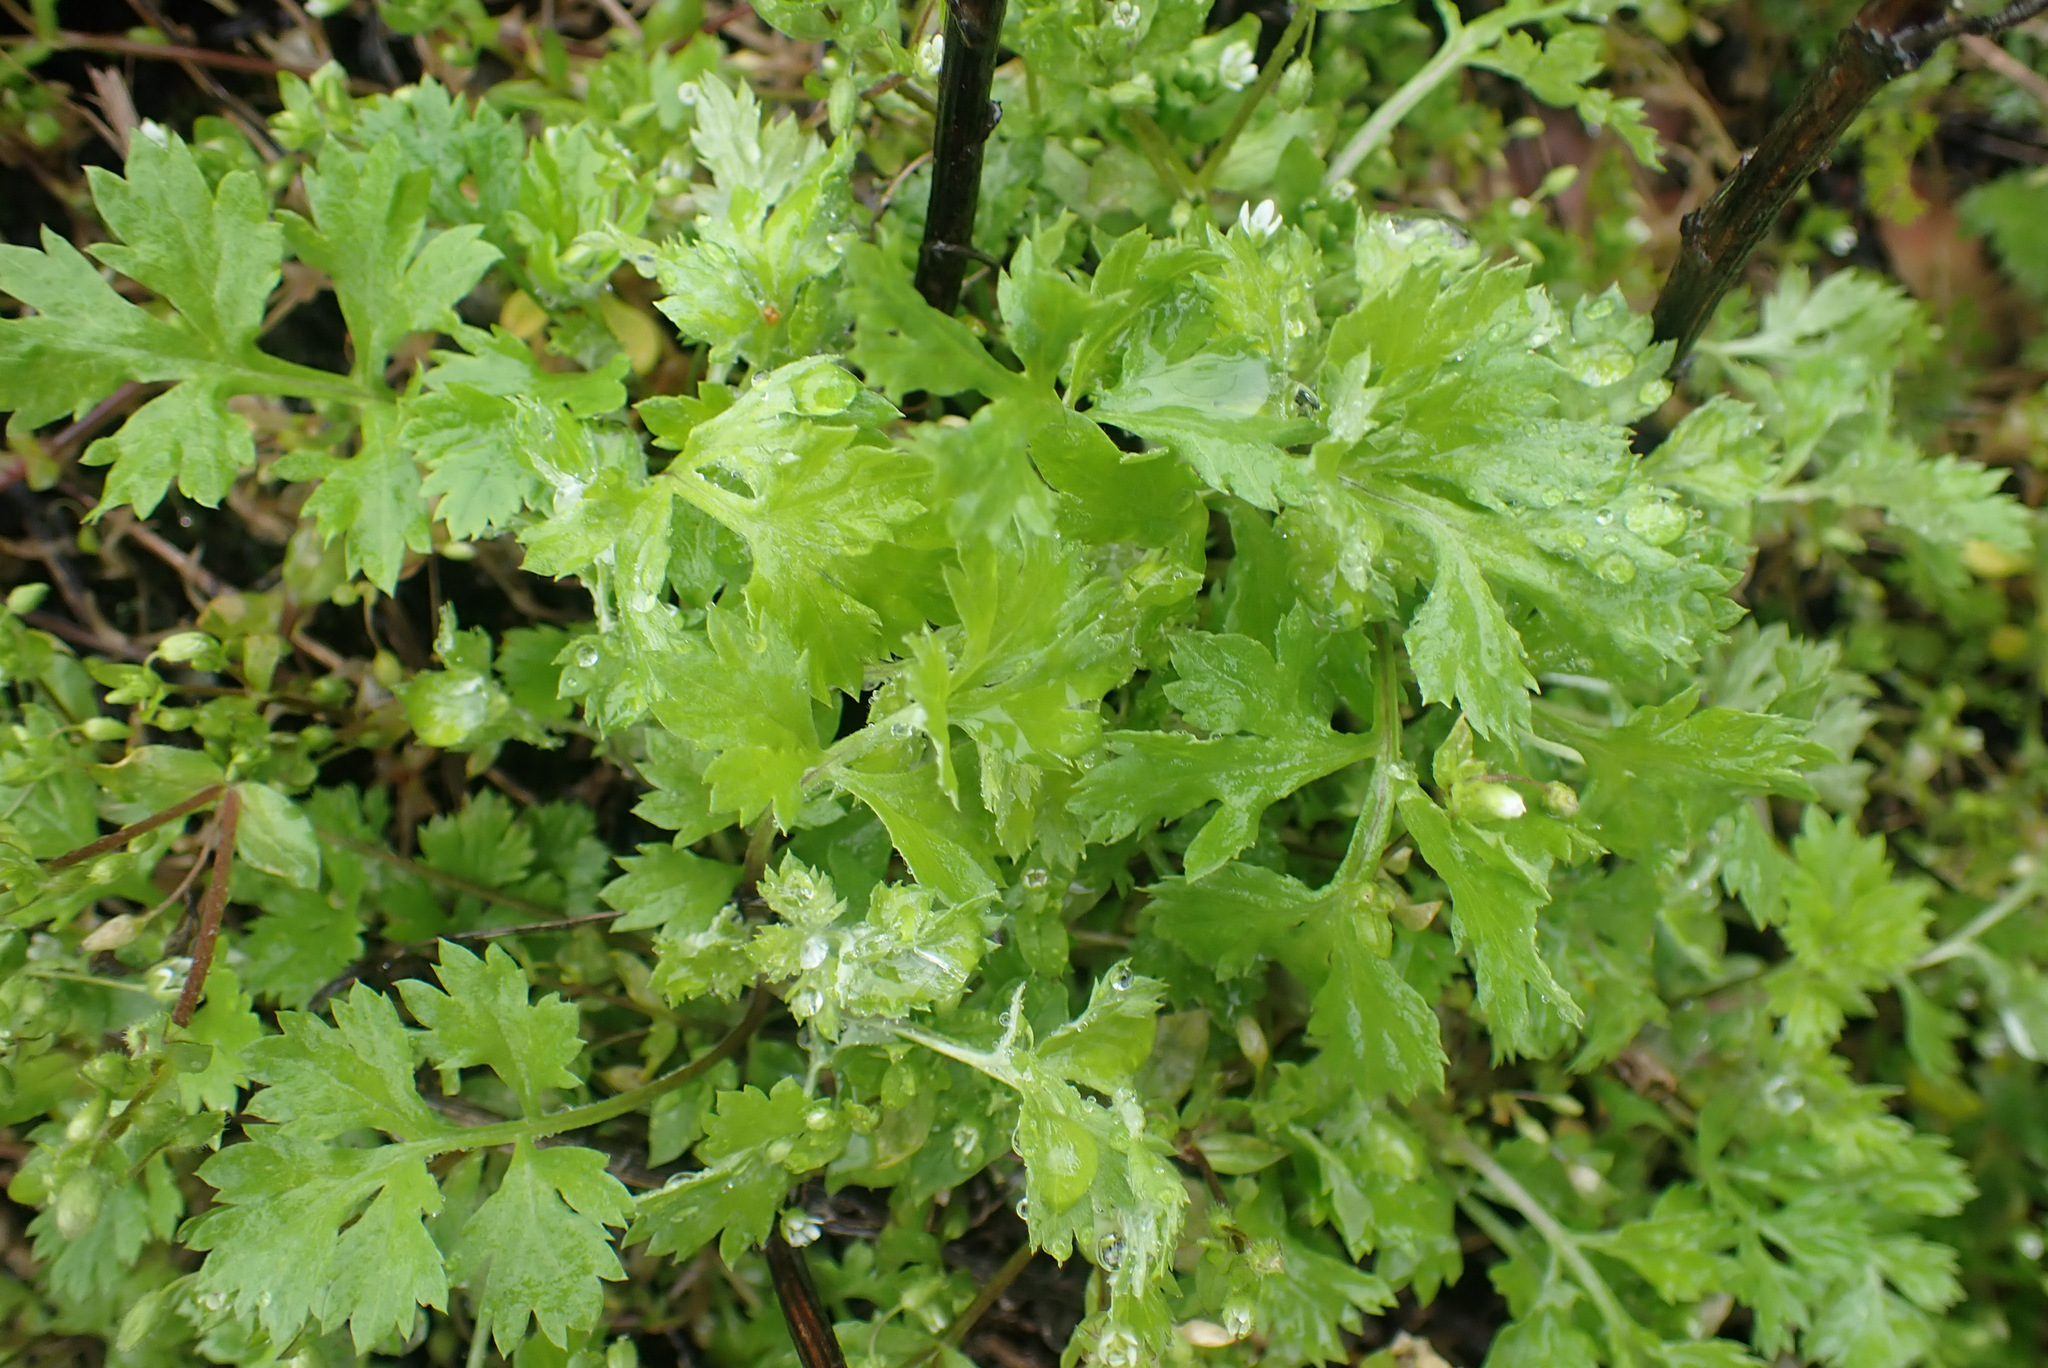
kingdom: Plantae
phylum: Tracheophyta
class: Magnoliopsida
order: Asterales
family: Asteraceae
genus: Artemisia
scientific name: Artemisia vulgaris
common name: Mugwort
